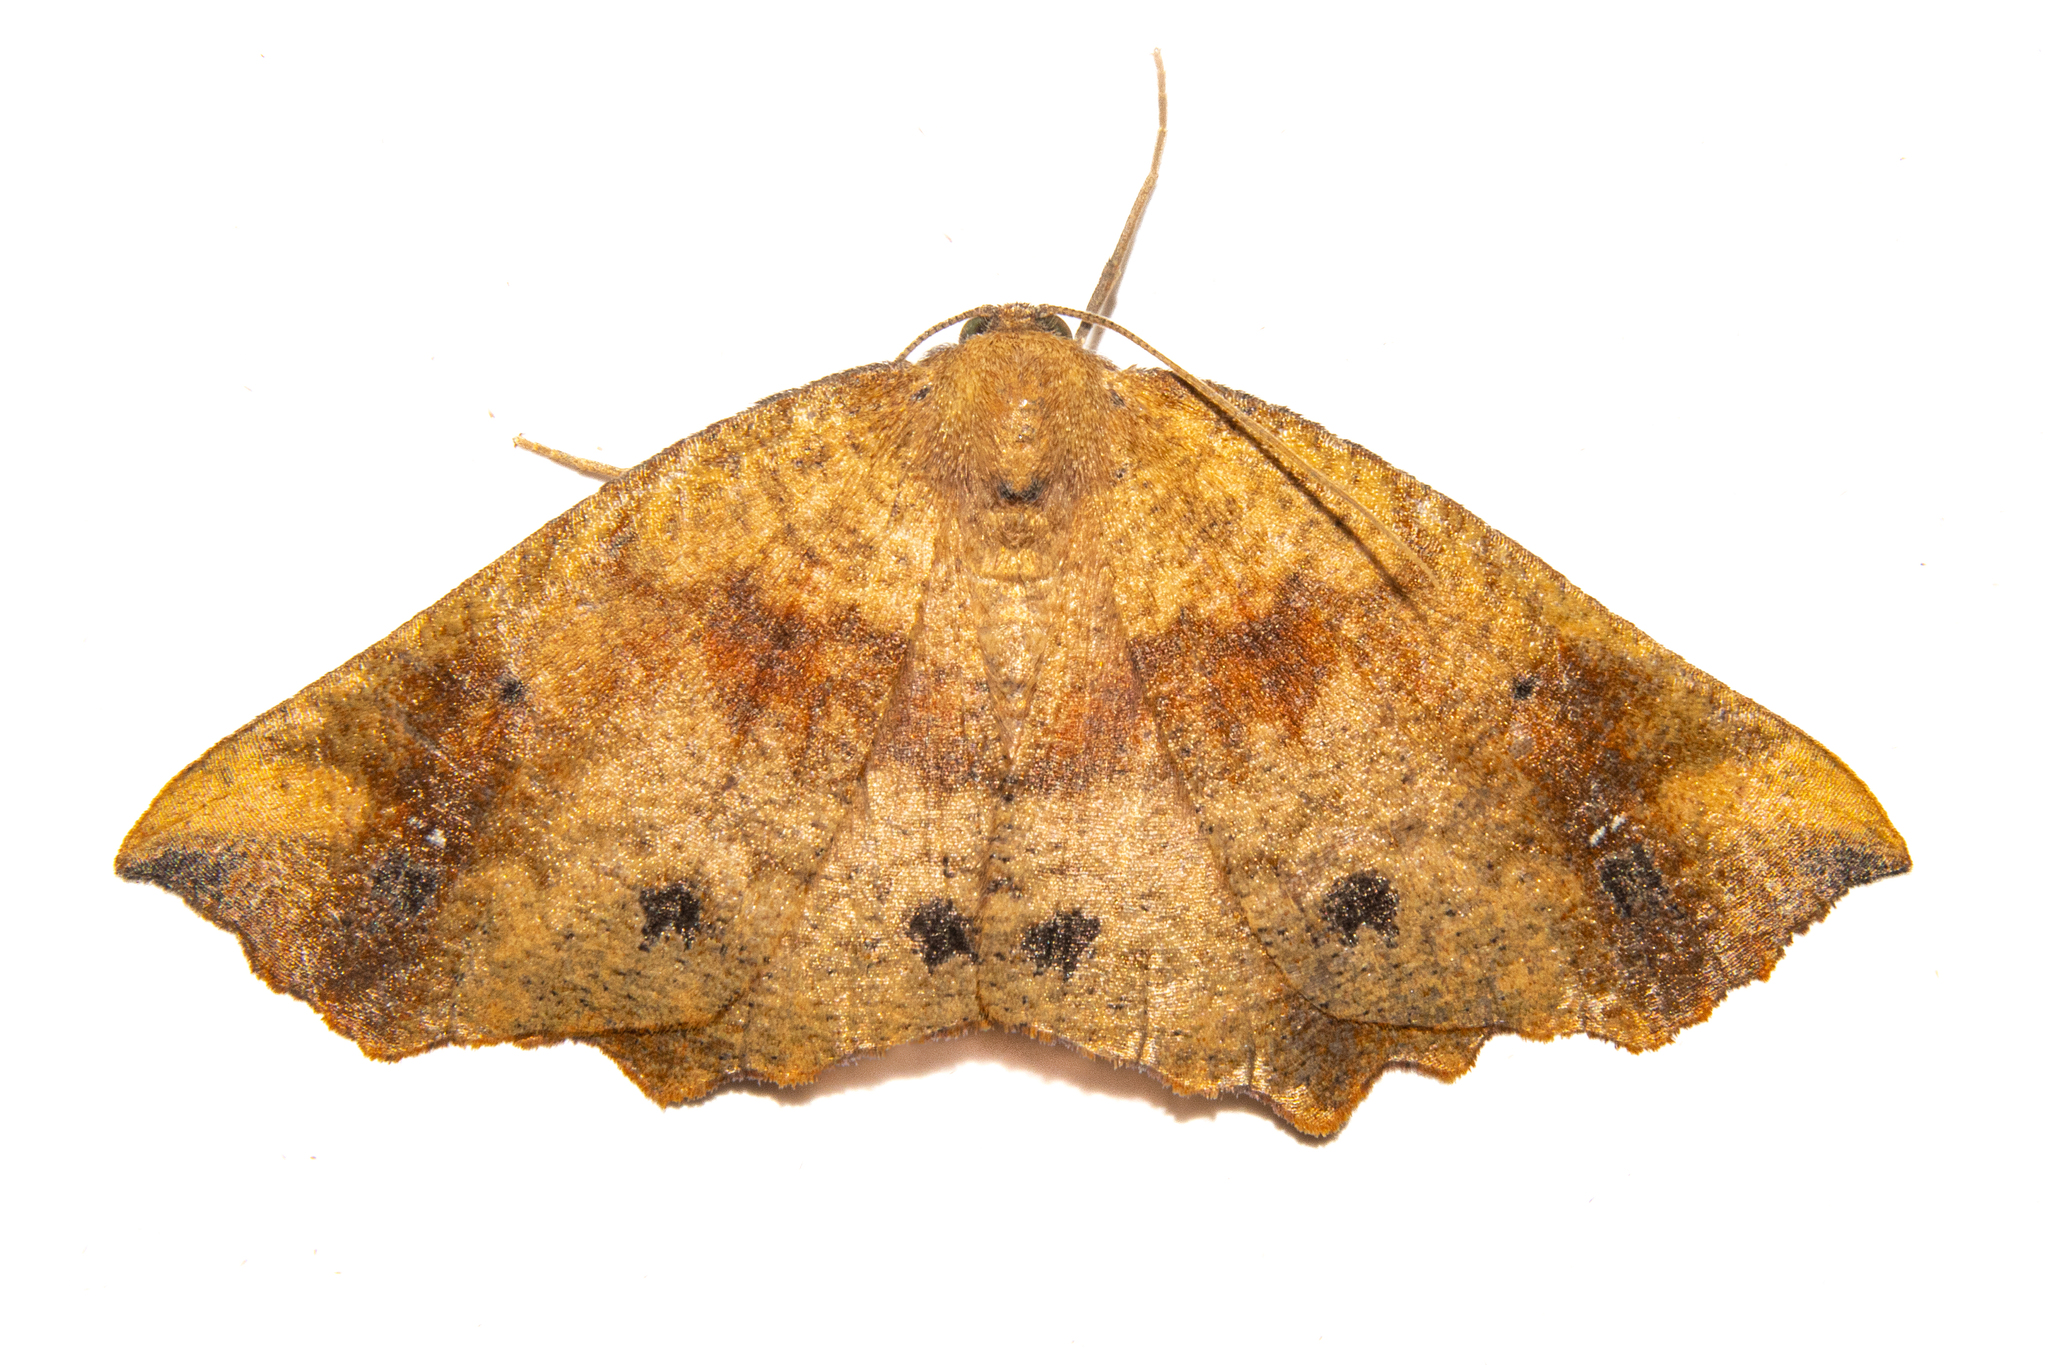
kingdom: Animalia
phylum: Arthropoda
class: Insecta
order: Lepidoptera
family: Geometridae
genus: Xyridacma
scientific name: Xyridacma ustaria
